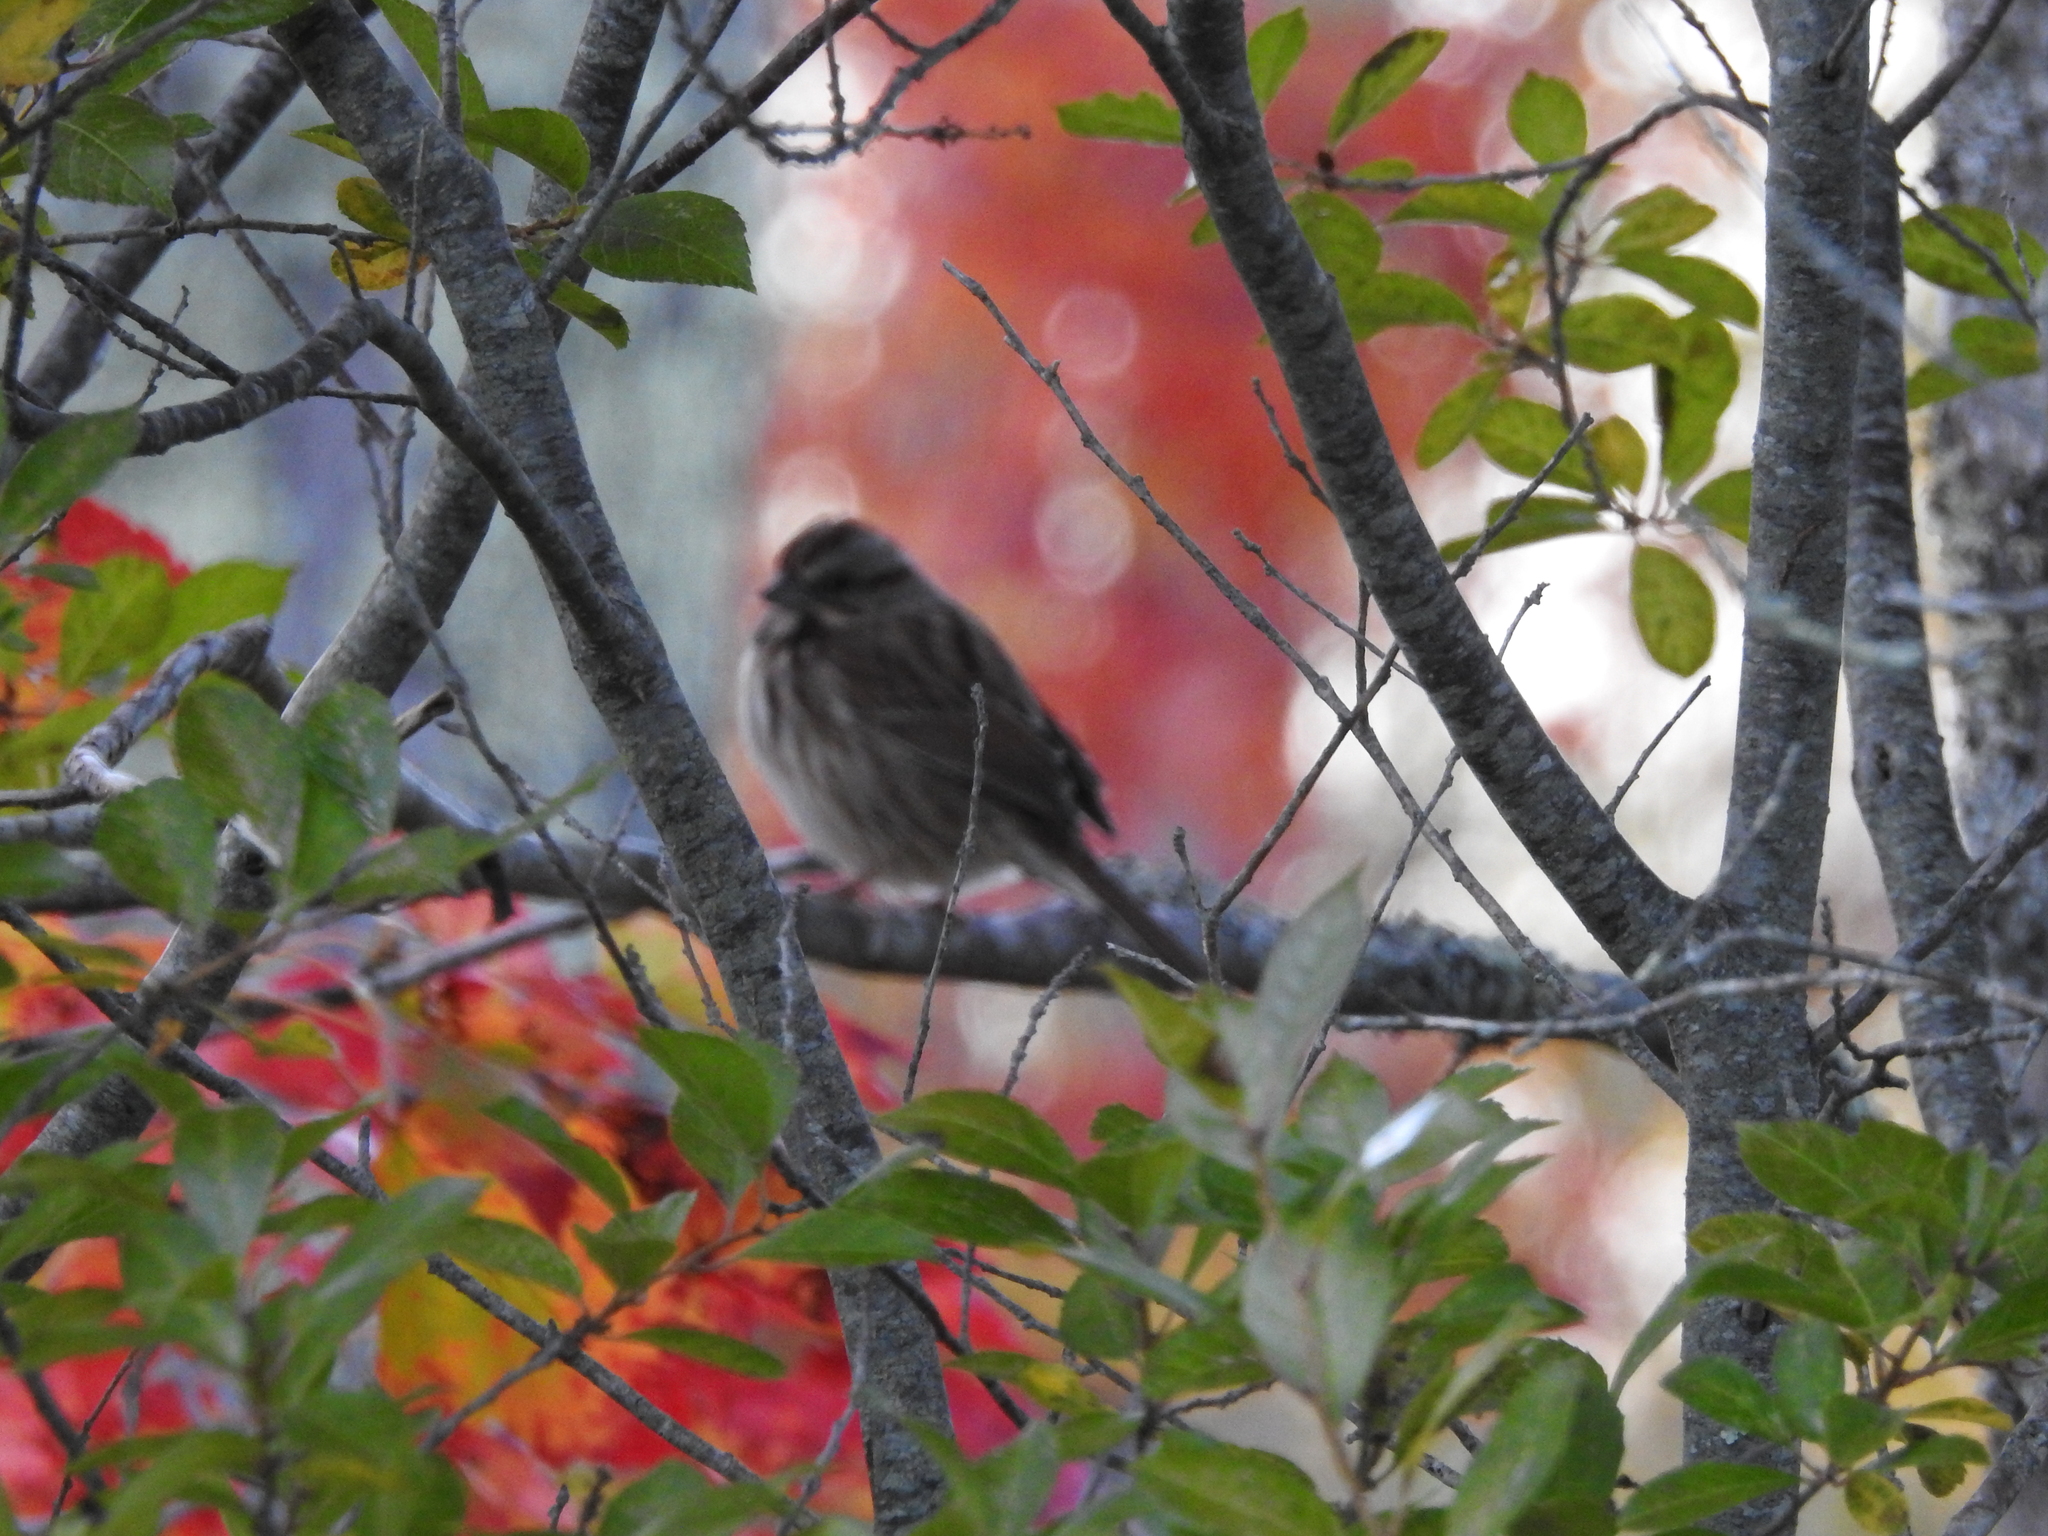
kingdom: Animalia
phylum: Chordata
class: Aves
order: Passeriformes
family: Passerellidae
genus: Melospiza
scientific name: Melospiza melodia
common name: Song sparrow
